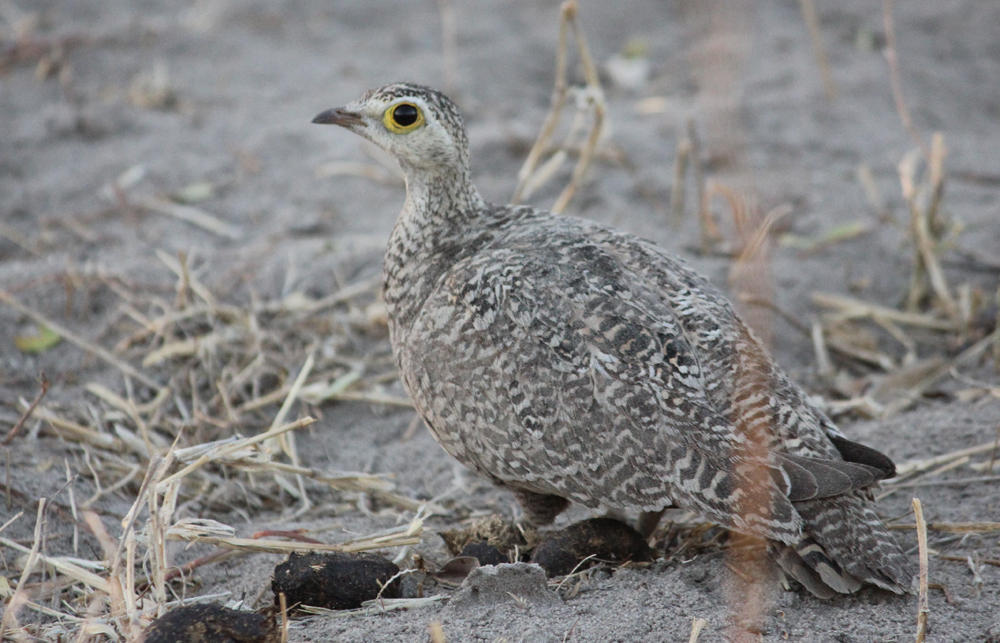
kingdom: Animalia
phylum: Chordata
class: Aves
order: Pteroclidiformes
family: Pteroclididae
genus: Pterocles
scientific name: Pterocles bicinctus
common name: Double-banded sandgrouse
